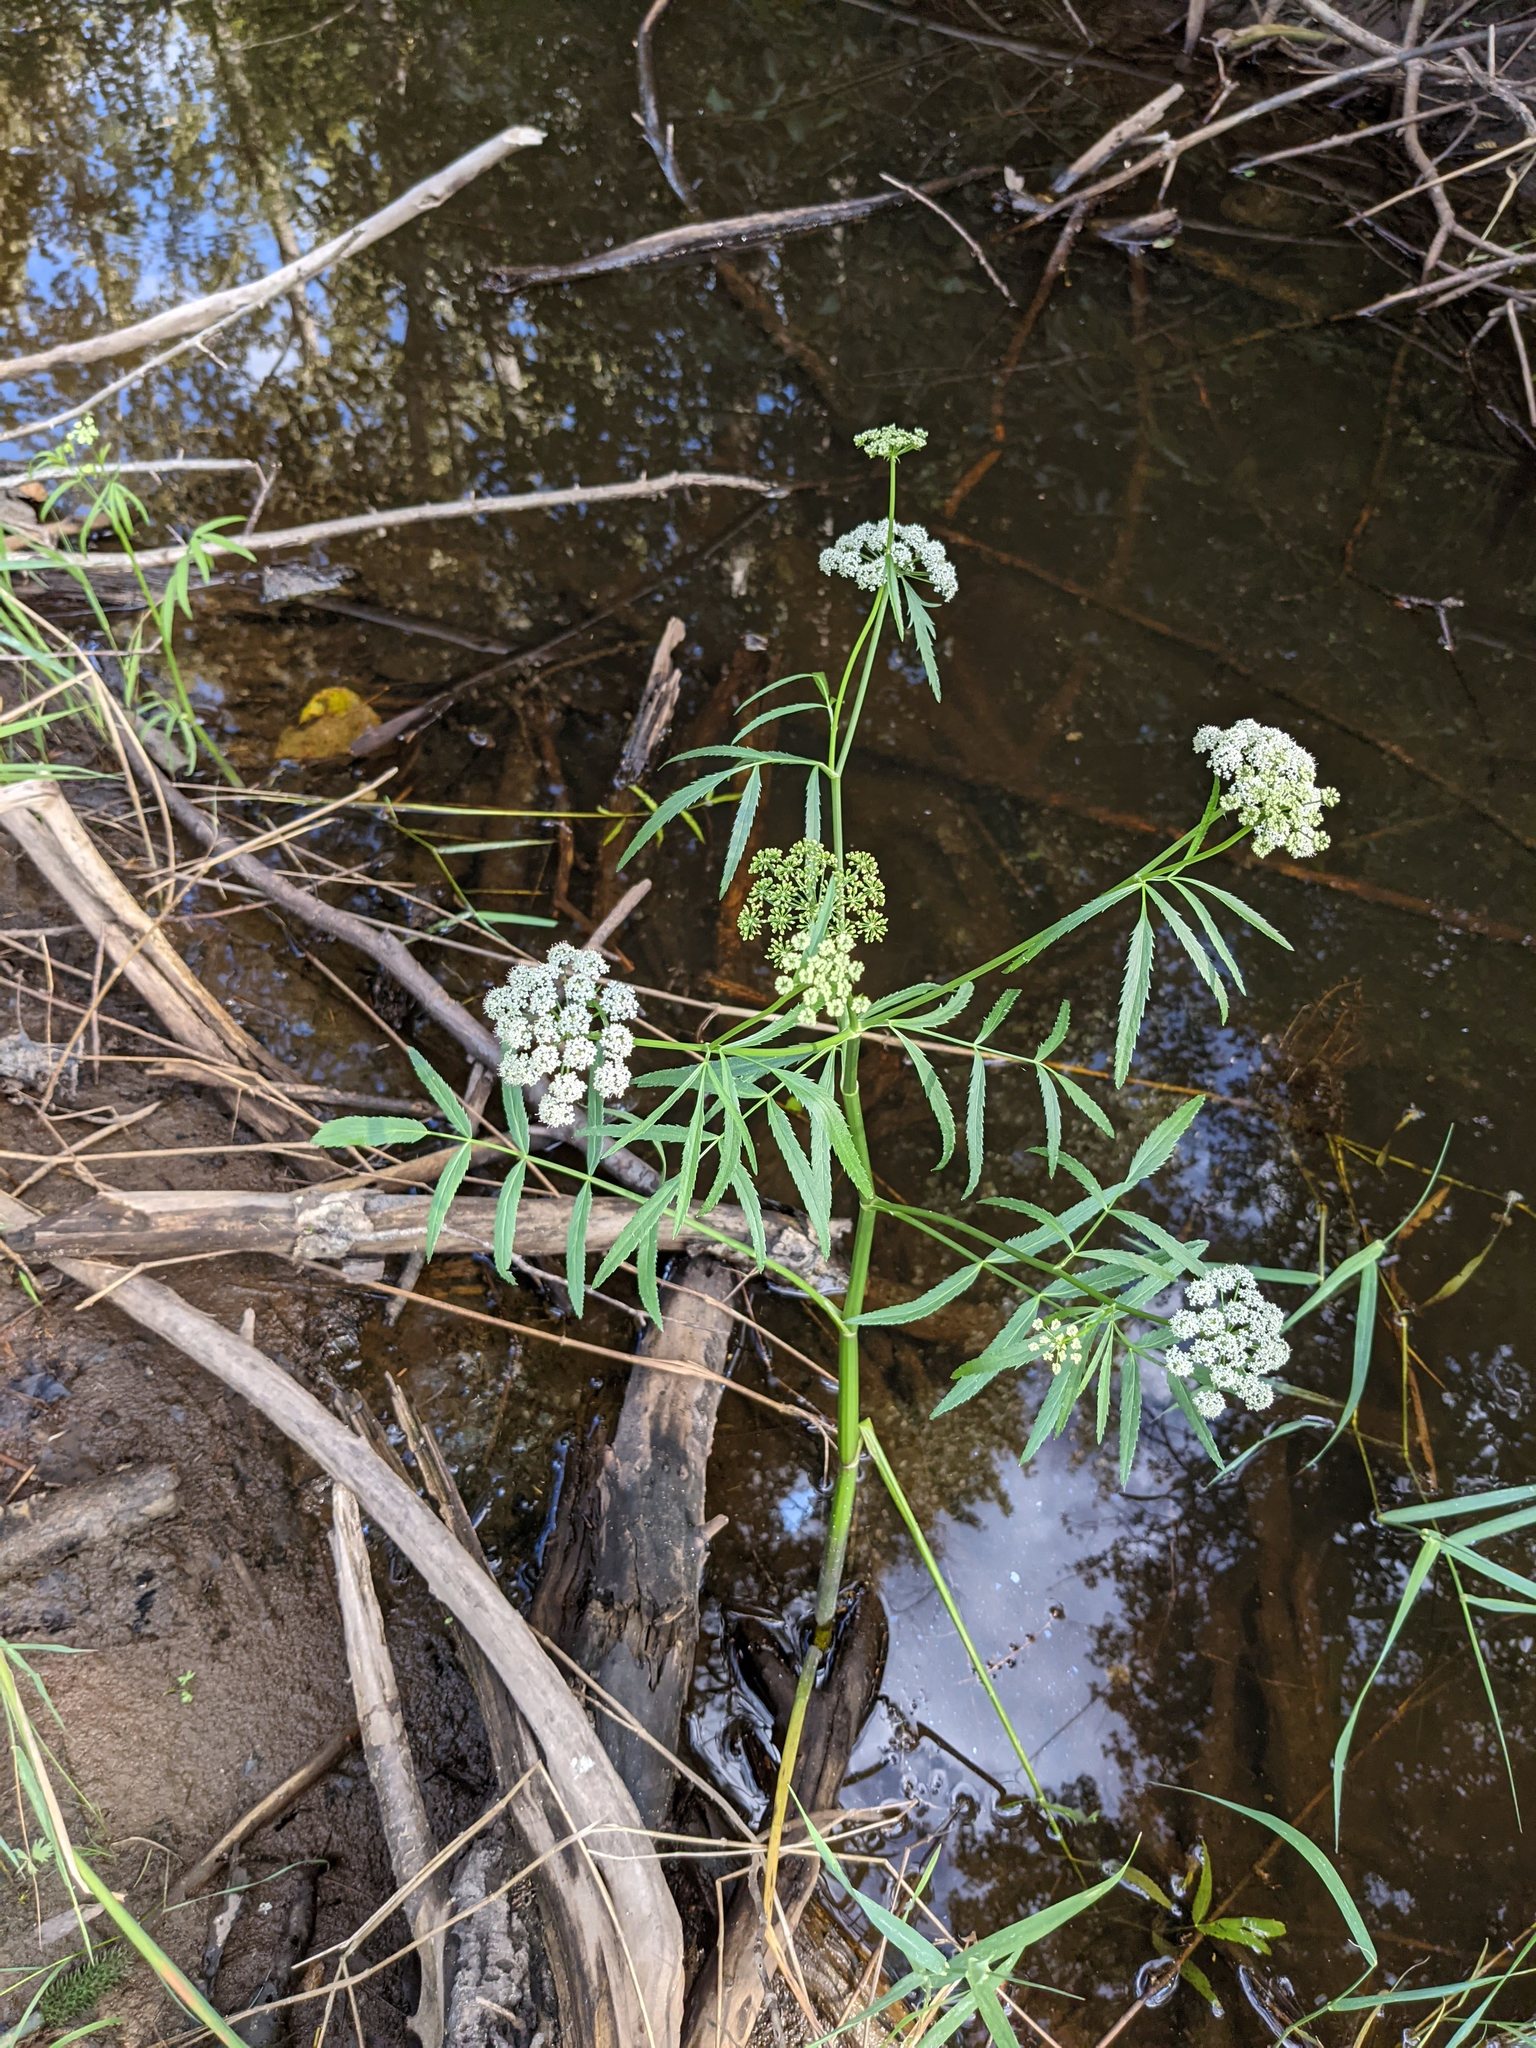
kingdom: Plantae
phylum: Tracheophyta
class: Magnoliopsida
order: Apiales
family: Apiaceae
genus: Sium
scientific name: Sium suave
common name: Hemlock water-parsnip
